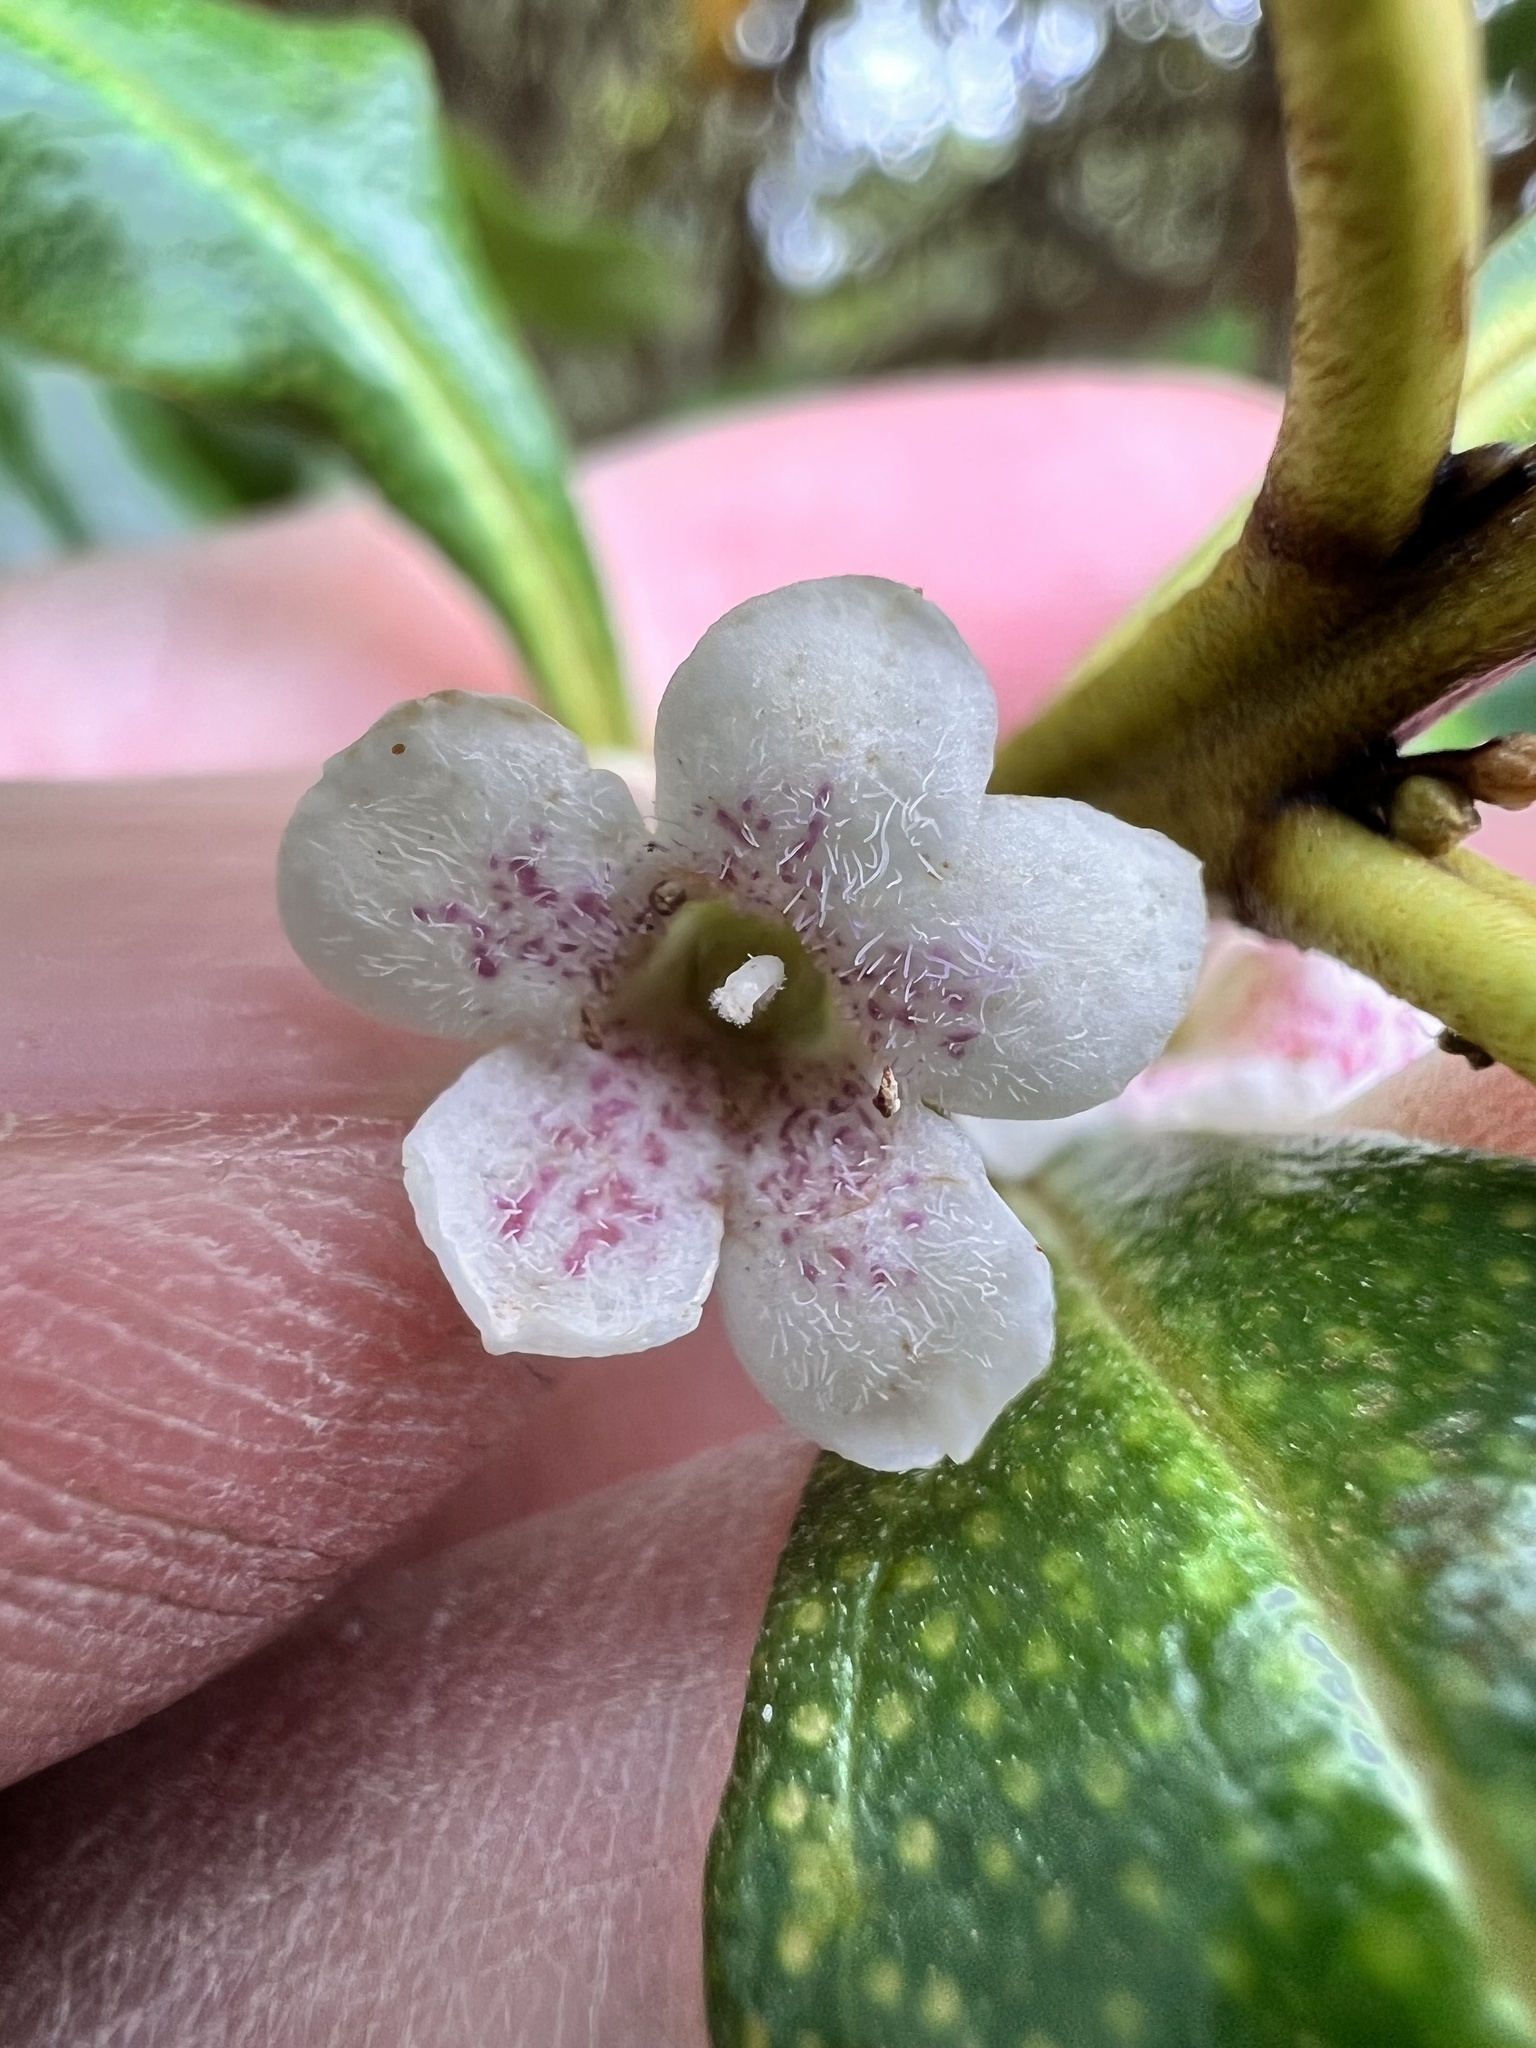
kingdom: Plantae
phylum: Tracheophyta
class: Magnoliopsida
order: Lamiales
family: Scrophulariaceae
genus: Myoporum
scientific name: Myoporum laetum
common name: Ngaio tree
